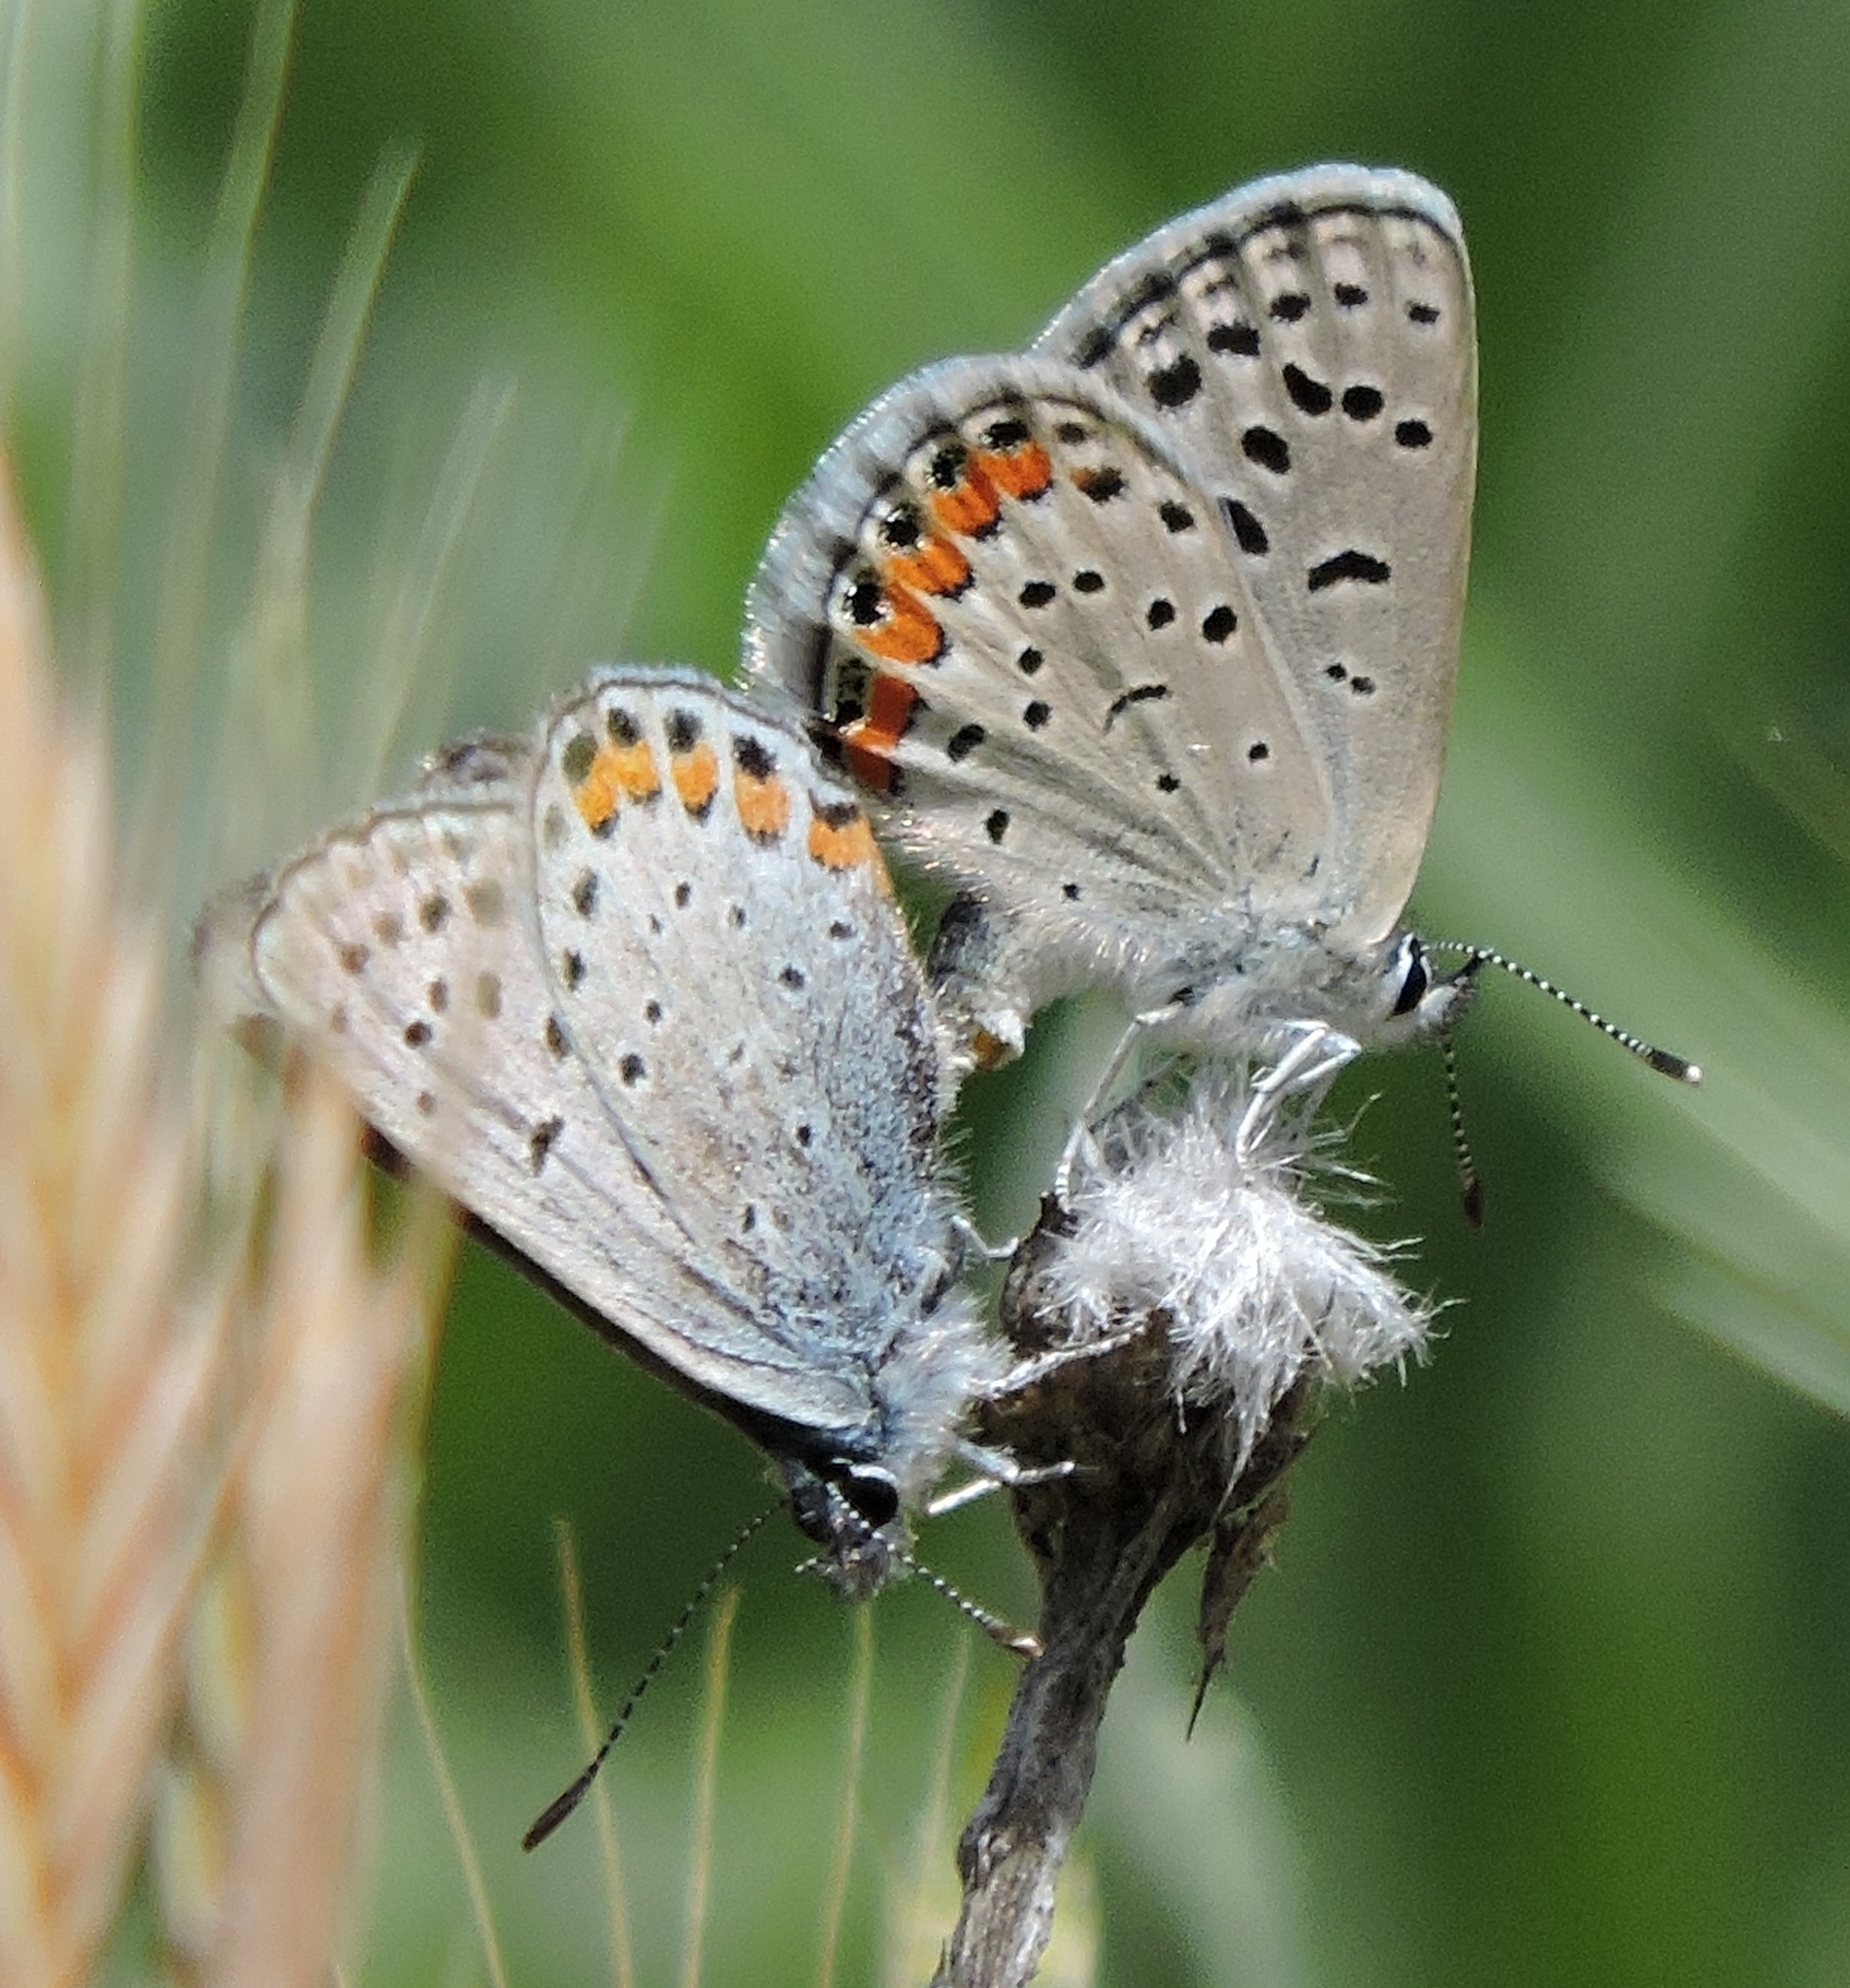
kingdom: Animalia
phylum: Arthropoda
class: Insecta
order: Lepidoptera
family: Lycaenidae
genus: Icaricia
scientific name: Icaricia acmon
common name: Acmon blue
